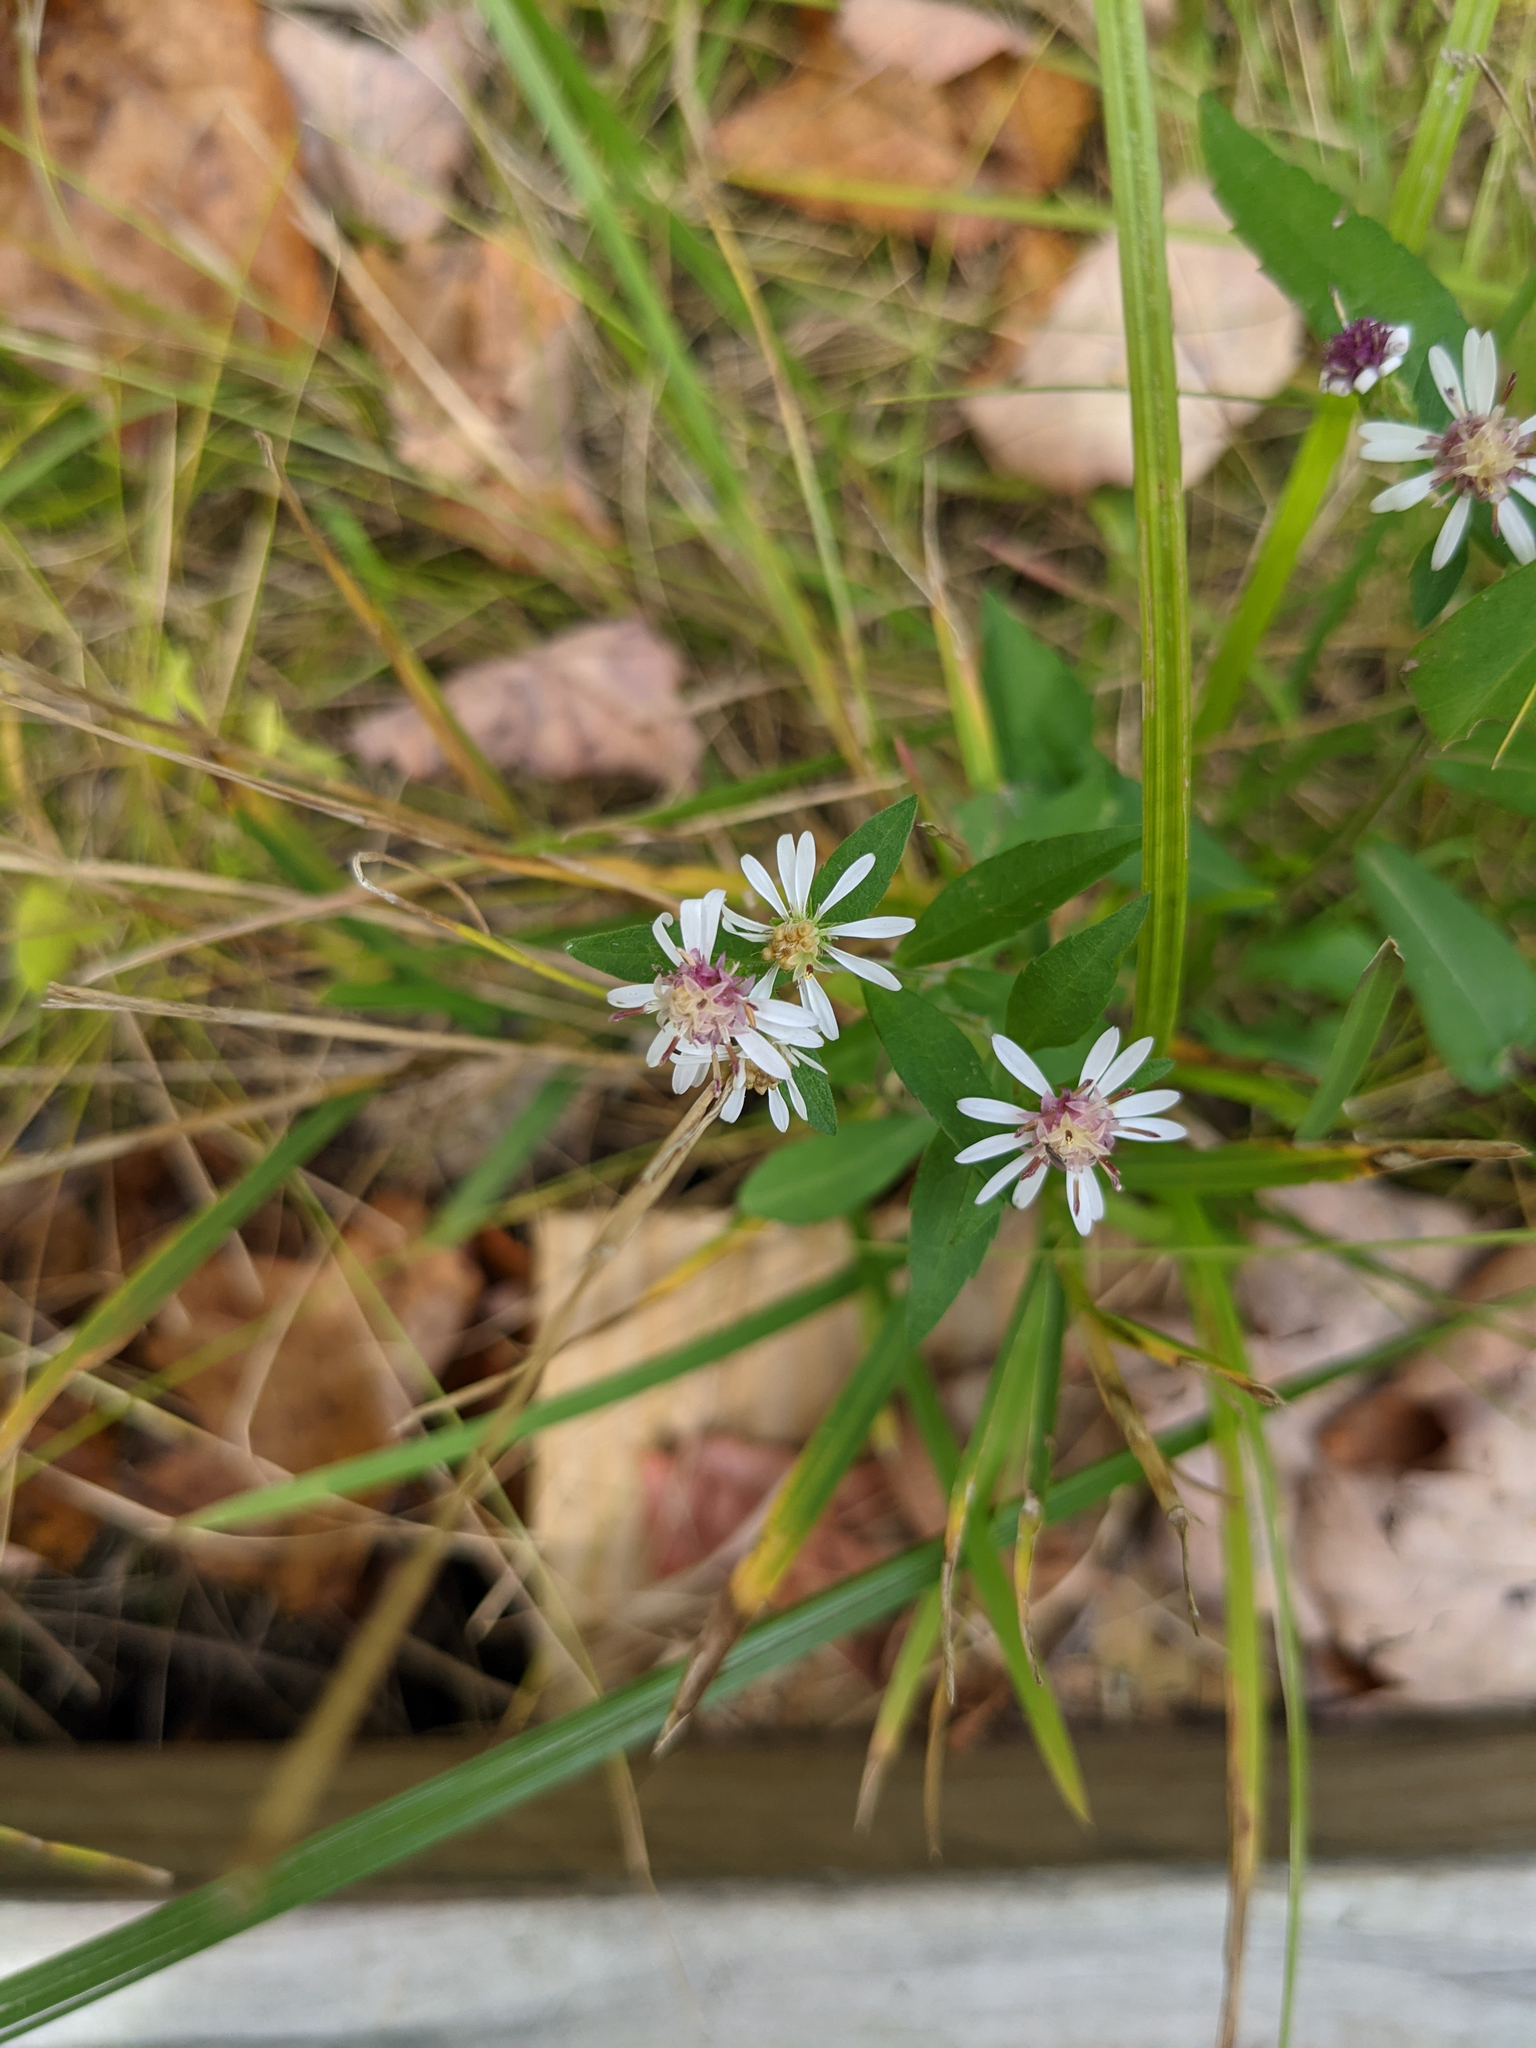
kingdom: Plantae
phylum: Tracheophyta
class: Magnoliopsida
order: Asterales
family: Asteraceae
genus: Symphyotrichum
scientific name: Symphyotrichum lateriflorum
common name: Calico aster
